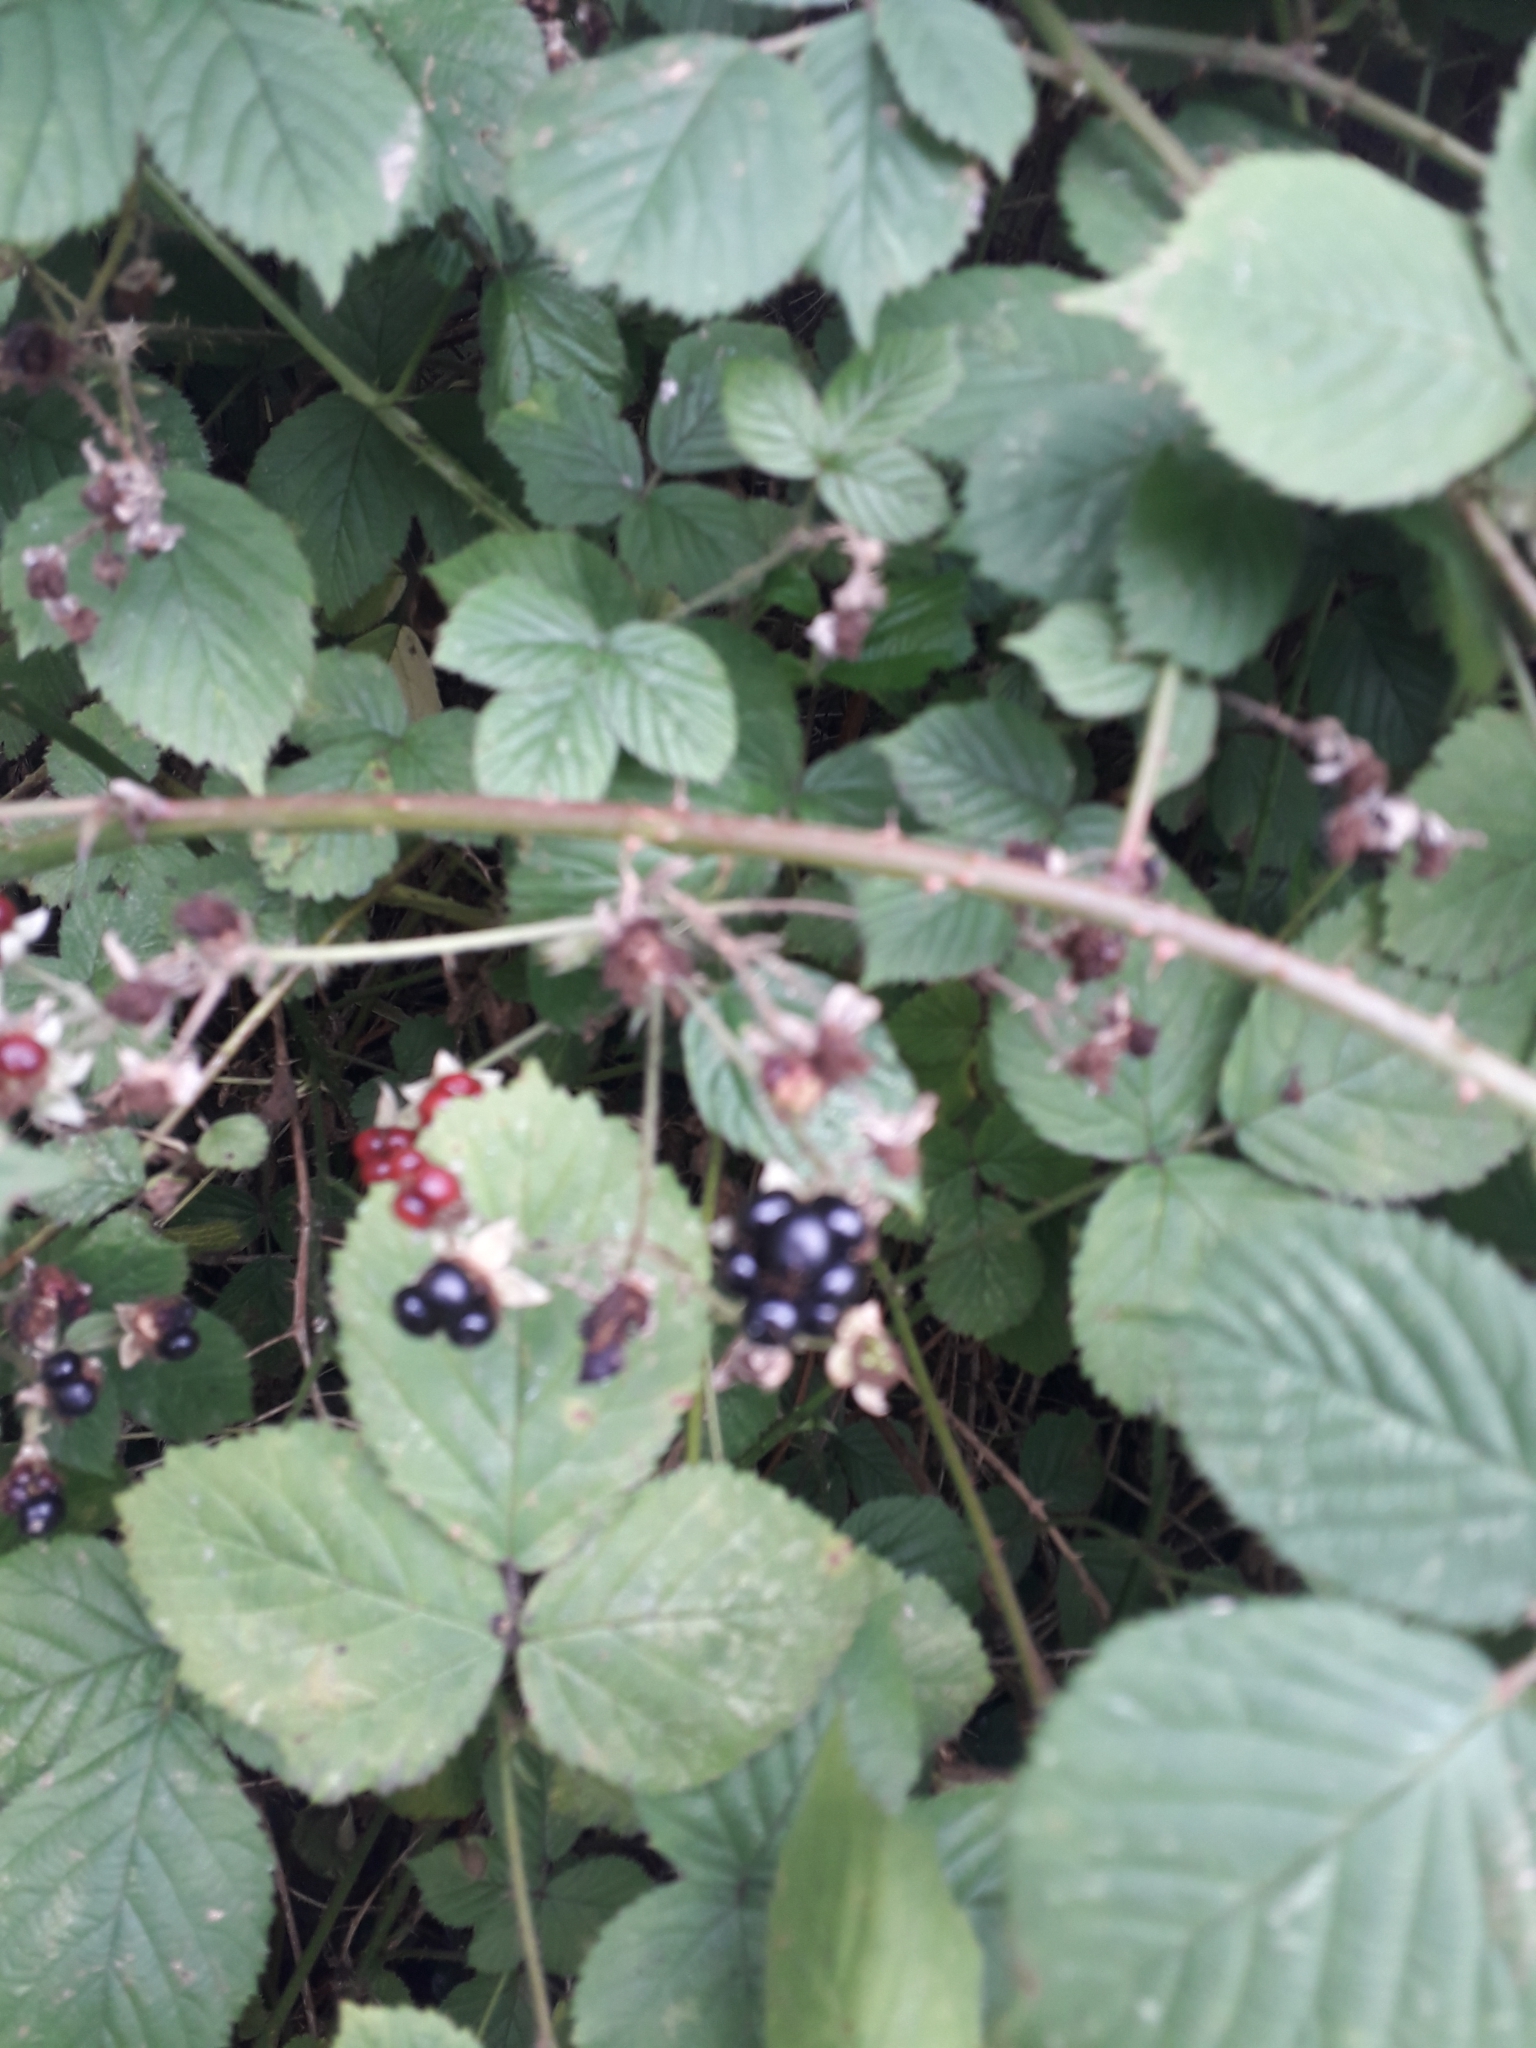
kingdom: Plantae
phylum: Tracheophyta
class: Magnoliopsida
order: Rosales
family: Rosaceae
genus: Rubus
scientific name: Rubus fruticosus
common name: Blackberry, bramble
